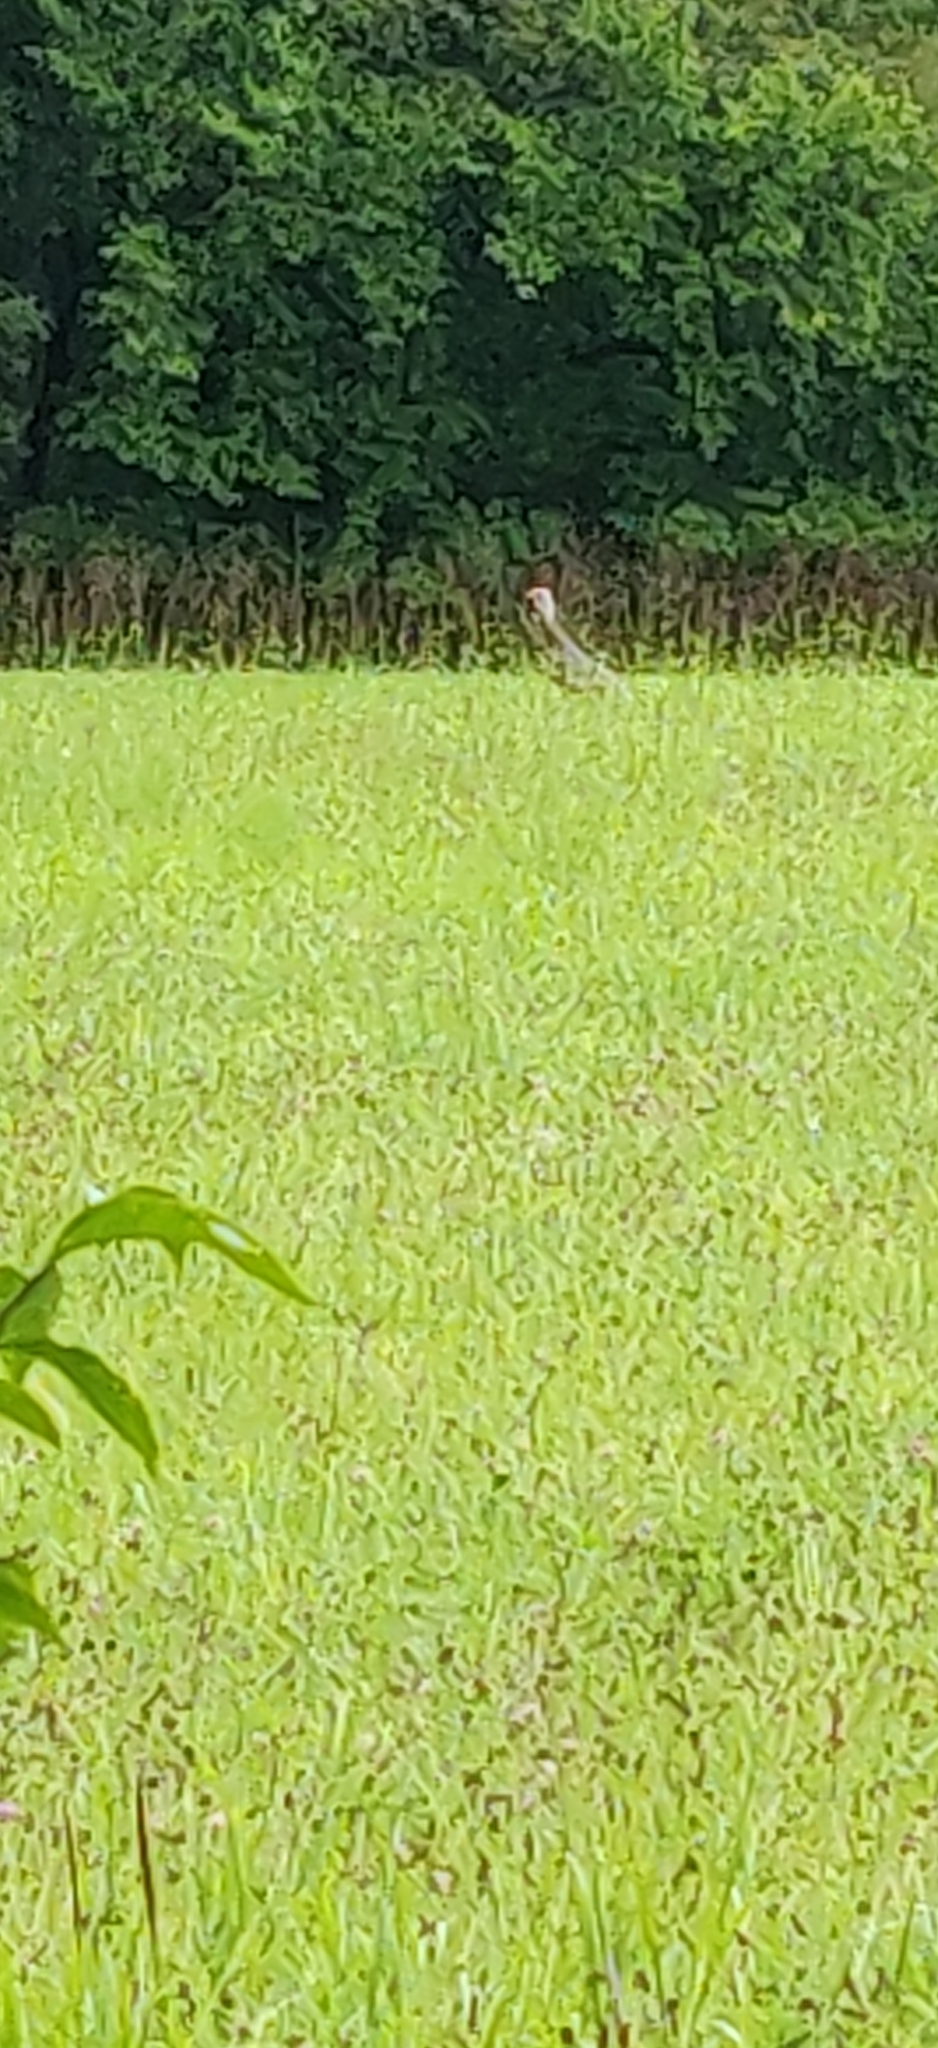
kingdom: Animalia
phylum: Chordata
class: Aves
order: Galliformes
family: Phasianidae
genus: Meleagris
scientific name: Meleagris gallopavo
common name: Wild turkey
